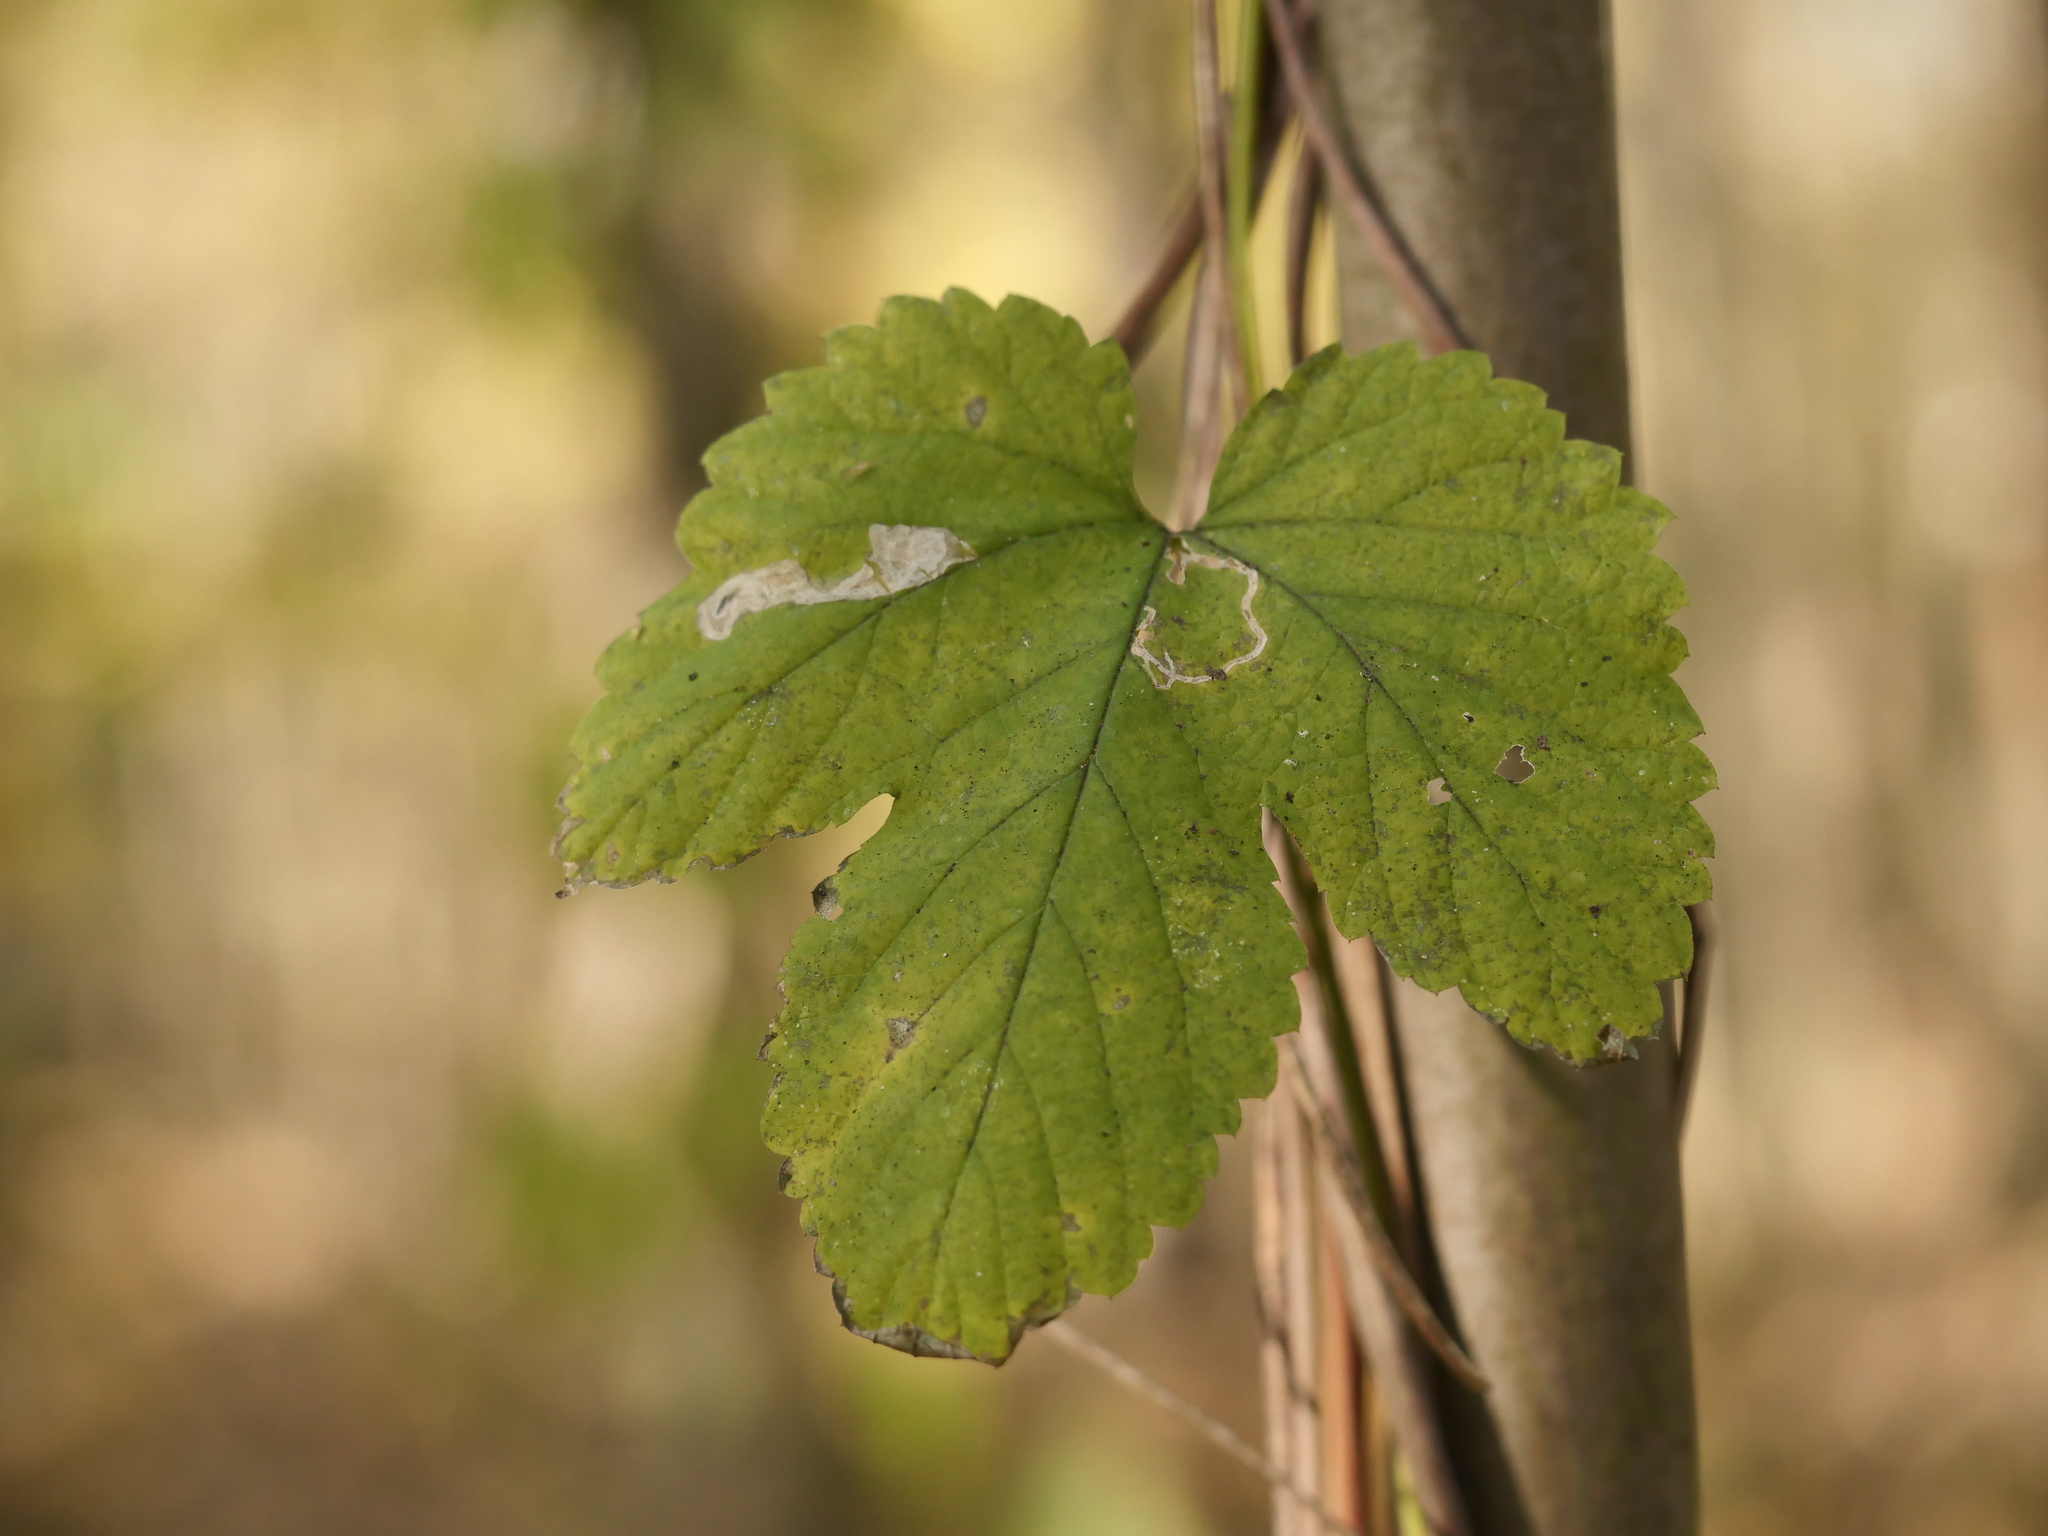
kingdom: Plantae
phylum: Tracheophyta
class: Magnoliopsida
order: Rosales
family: Cannabaceae
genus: Humulus
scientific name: Humulus lupulus
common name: Hop
